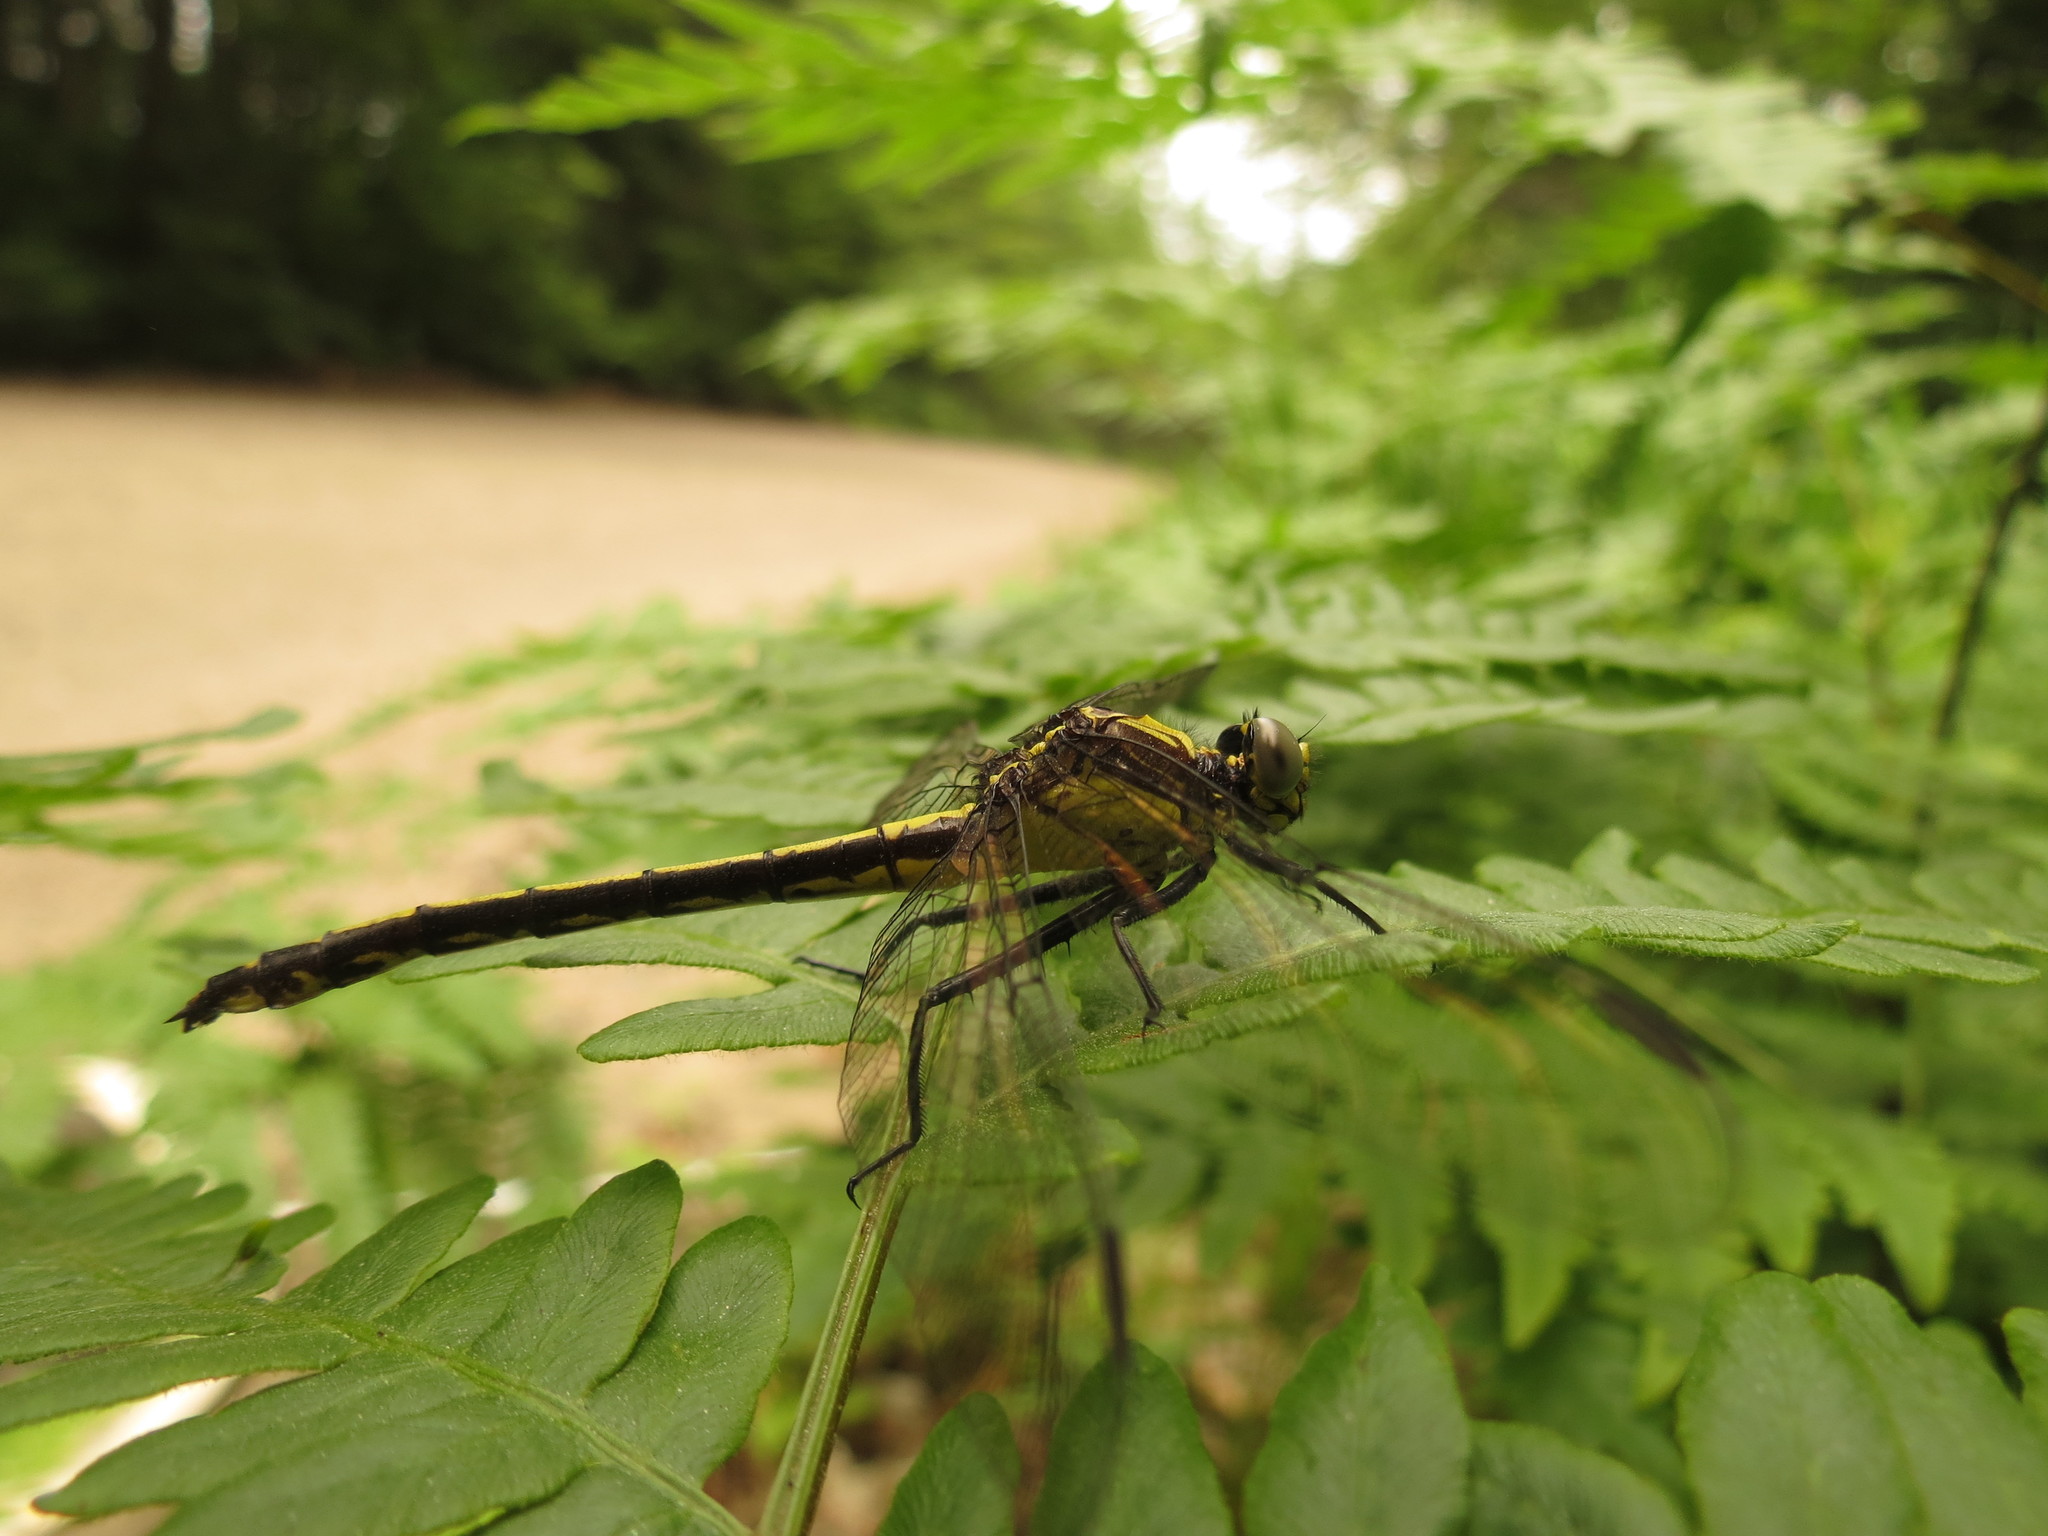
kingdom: Animalia
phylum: Arthropoda
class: Insecta
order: Odonata
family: Gomphidae
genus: Dromogomphus
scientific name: Dromogomphus spinosus
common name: Black-shouldered spinyleg
